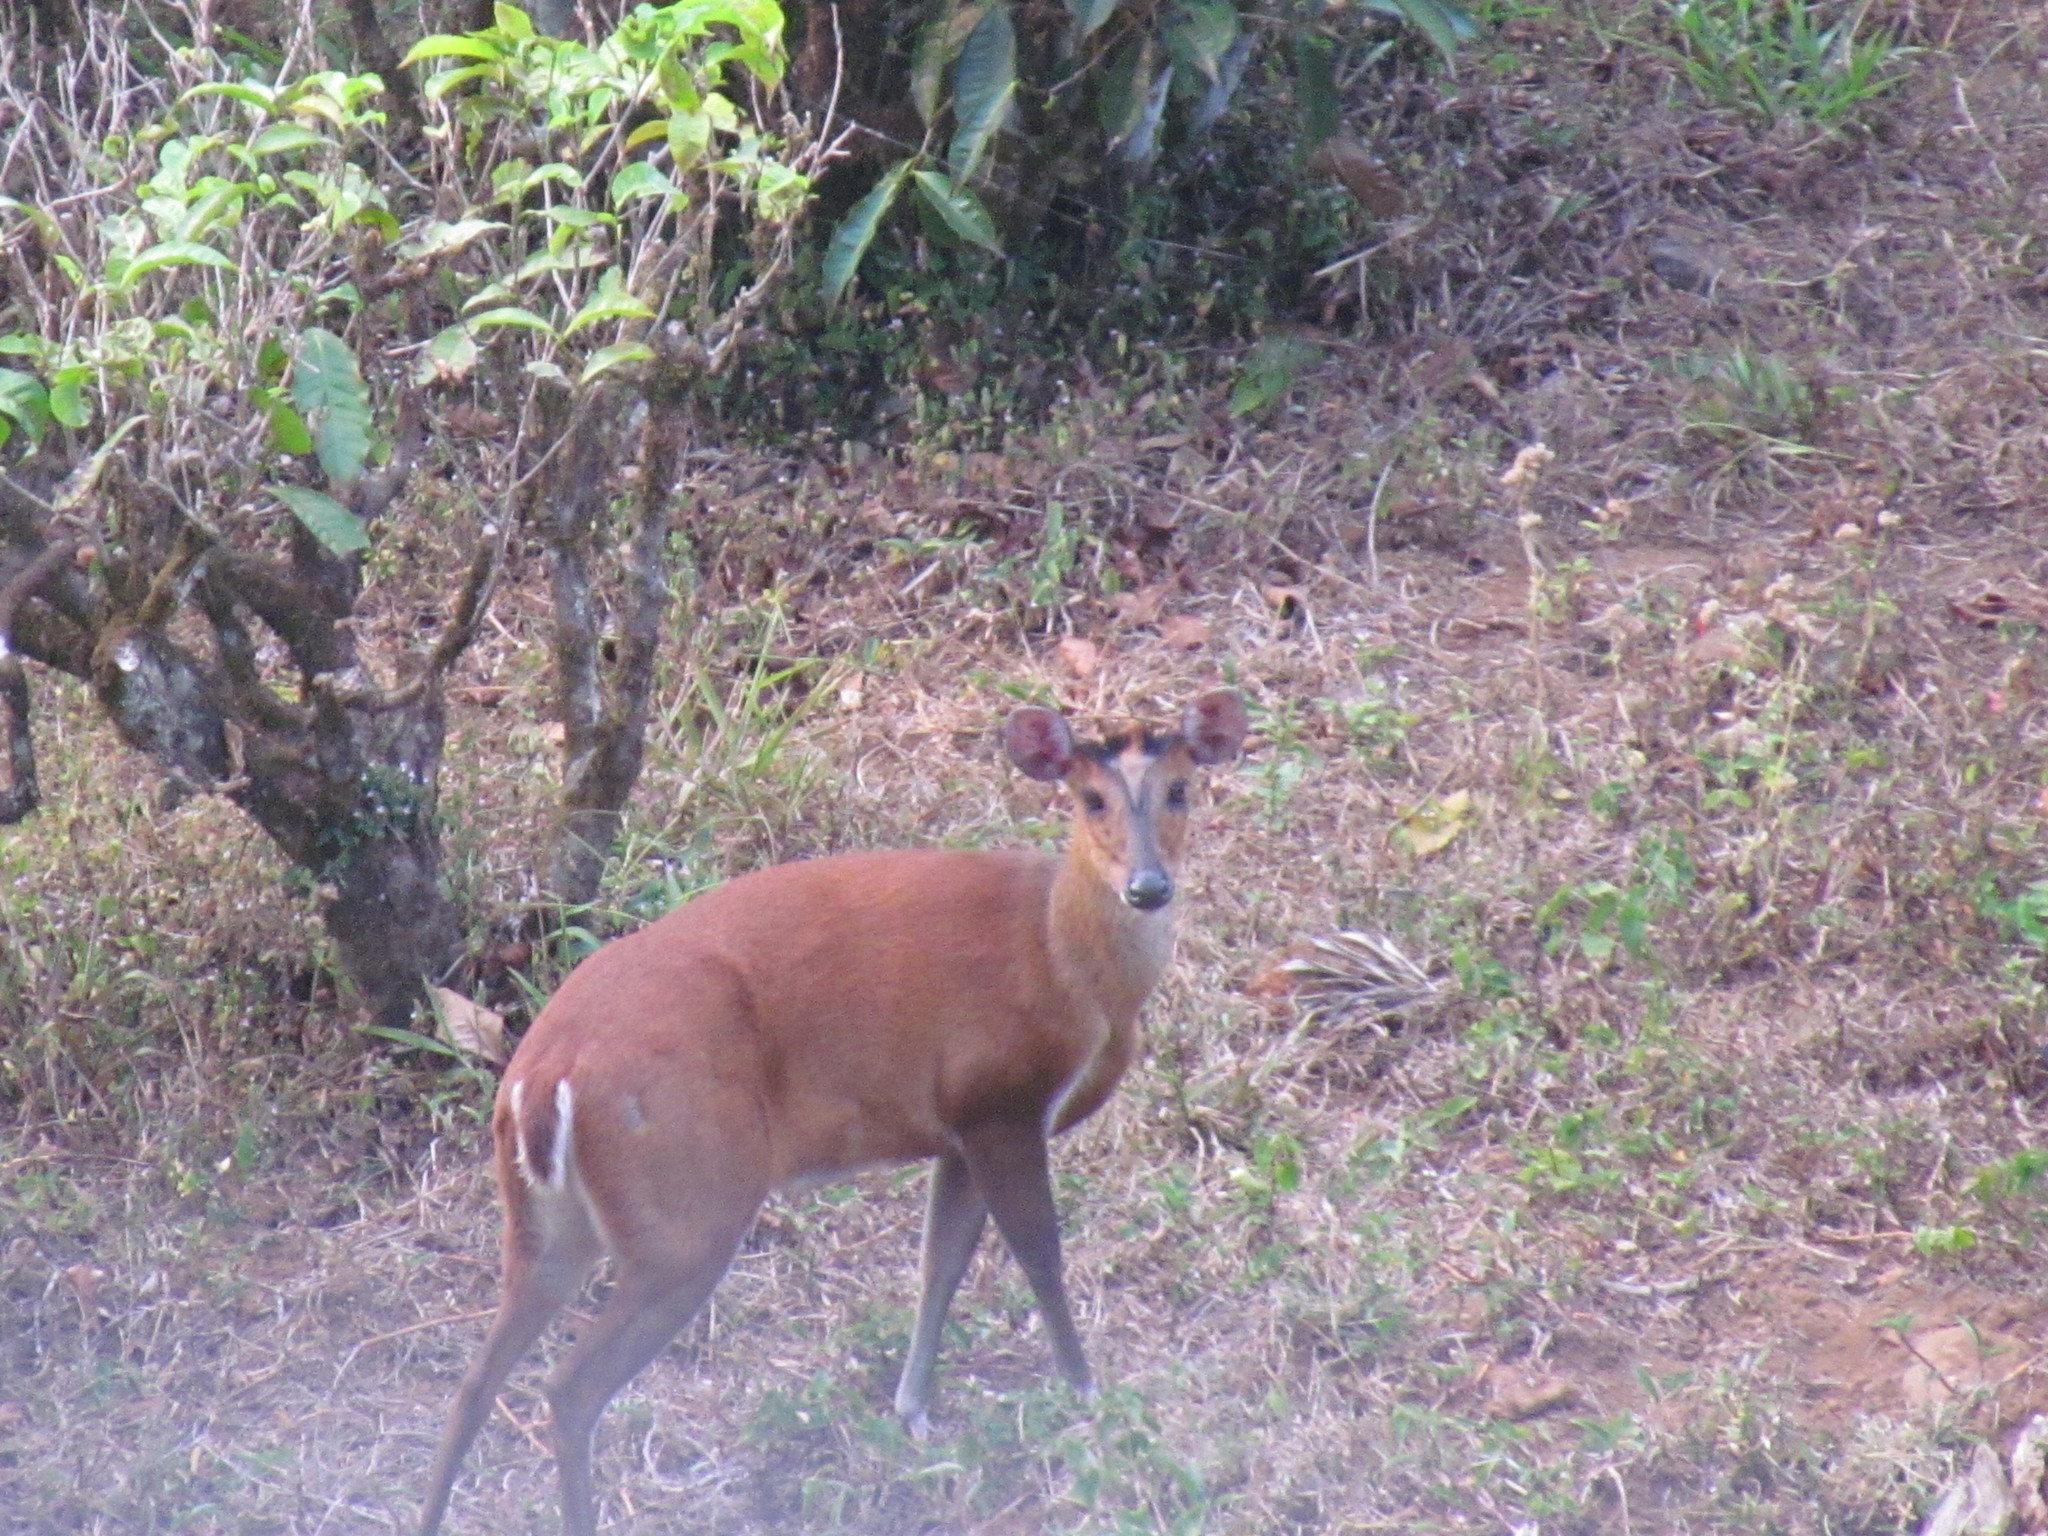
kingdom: Animalia
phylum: Chordata
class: Mammalia
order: Artiodactyla
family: Cervidae
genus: Muntiacus
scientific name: Muntiacus muntjak
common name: Indian muntjac
